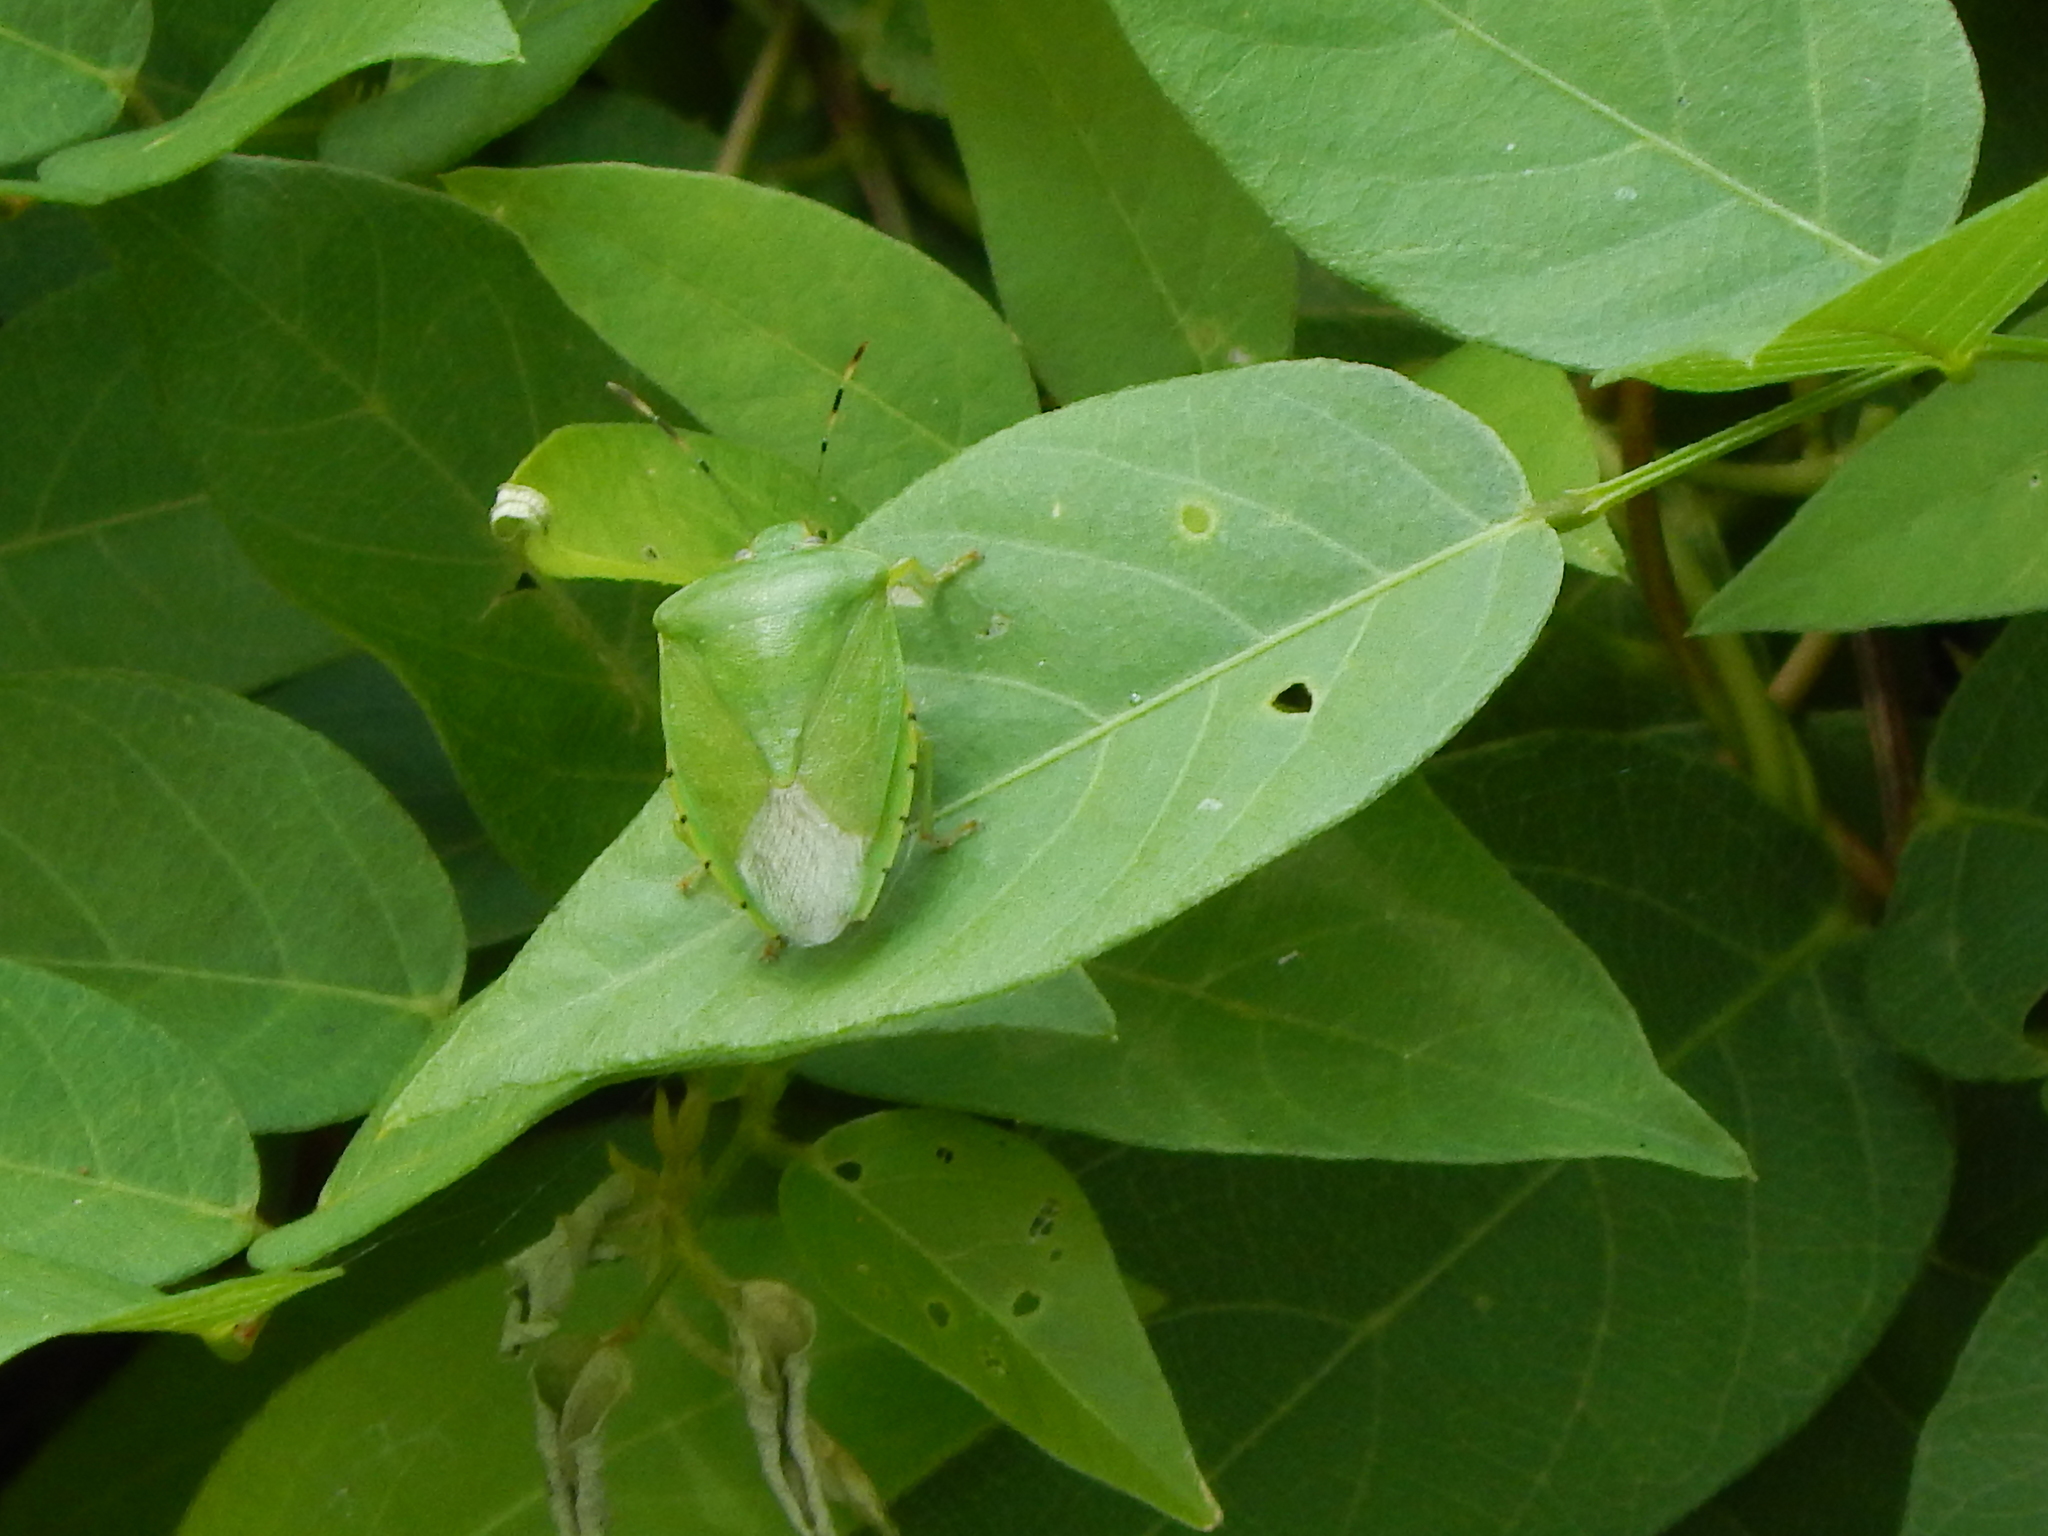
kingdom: Animalia
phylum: Arthropoda
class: Insecta
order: Hemiptera
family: Pentatomidae
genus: Chinavia
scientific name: Chinavia hilaris
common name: Green stink bug
